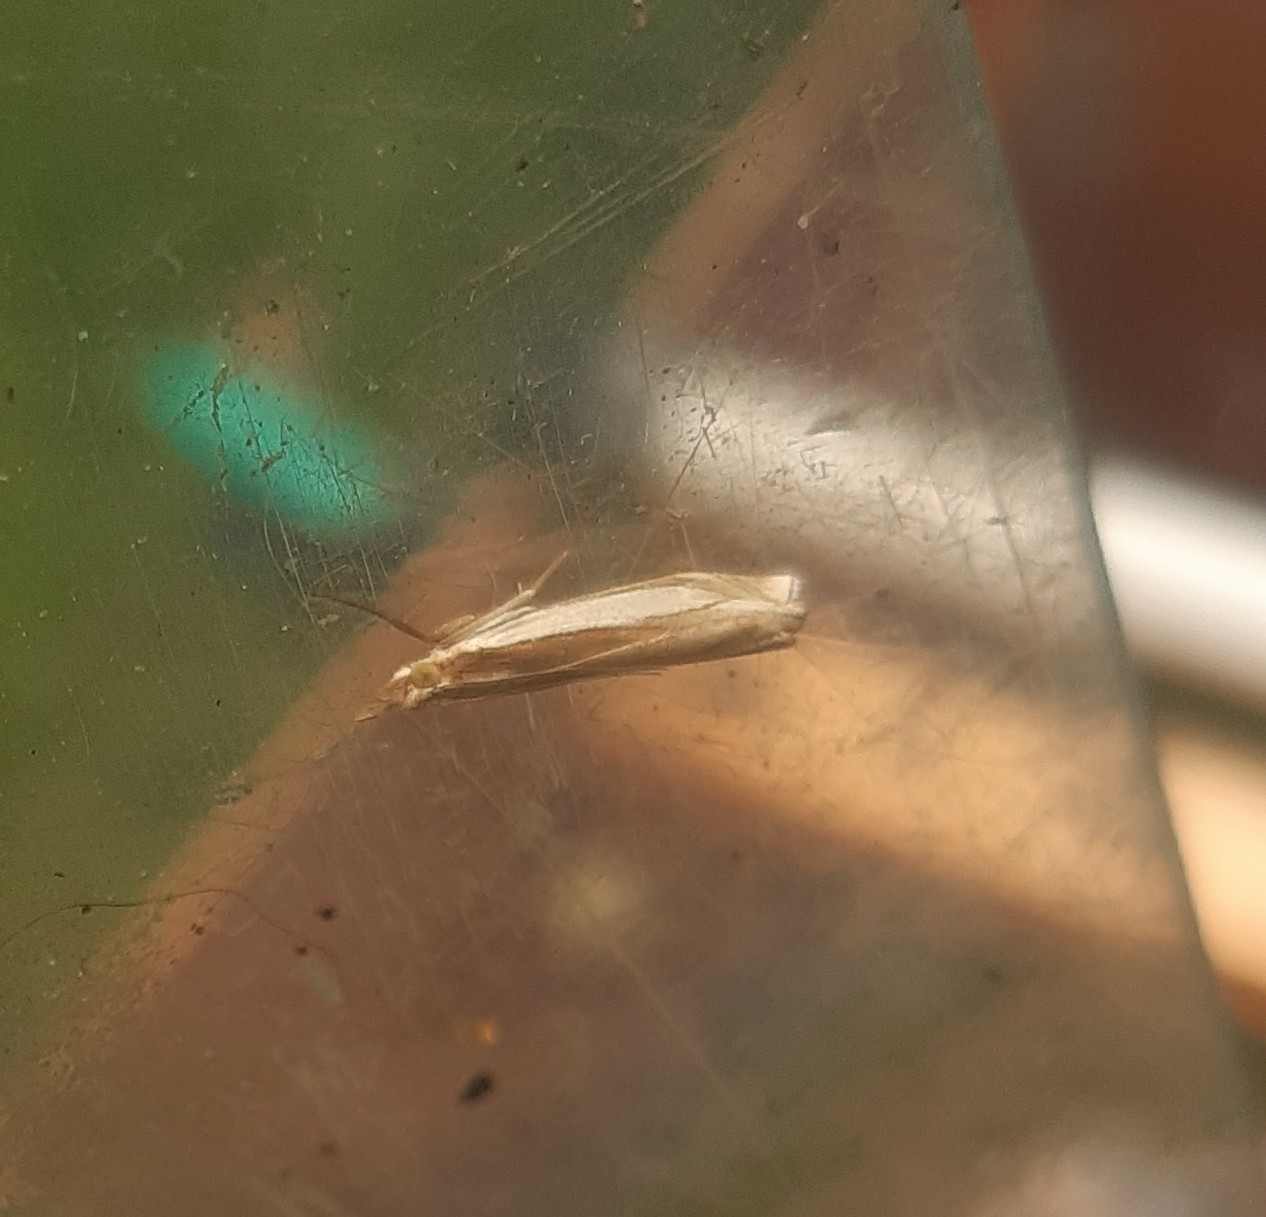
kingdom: Animalia
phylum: Arthropoda
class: Insecta
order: Lepidoptera
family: Crambidae
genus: Crambus
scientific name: Crambus pascuella
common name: Inlaid grass-veneer
